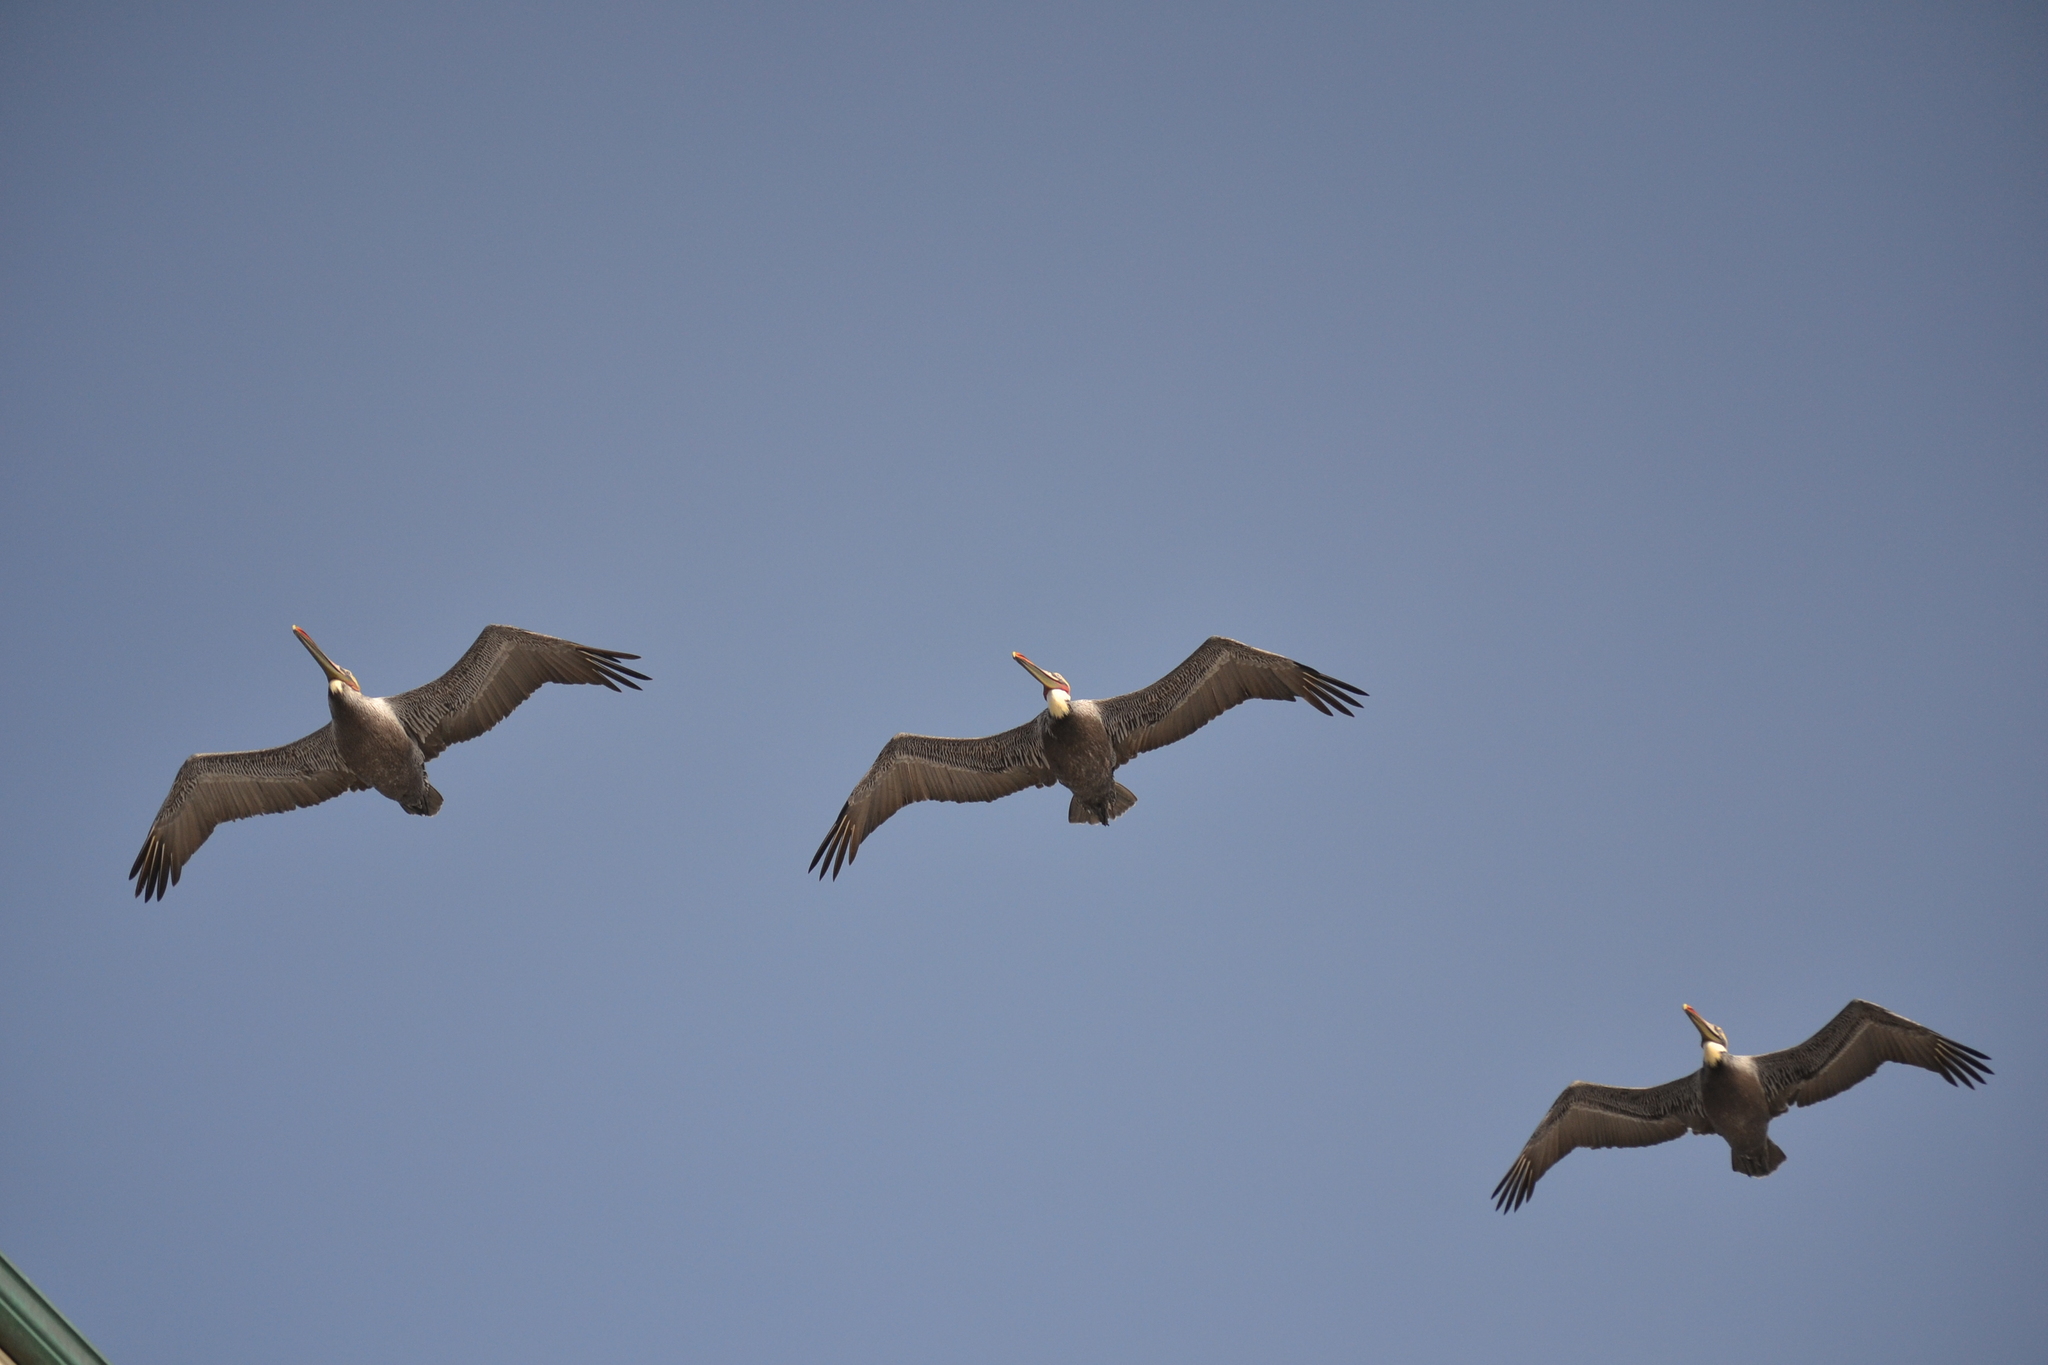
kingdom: Animalia
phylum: Chordata
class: Aves
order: Pelecaniformes
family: Pelecanidae
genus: Pelecanus
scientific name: Pelecanus occidentalis
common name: Brown pelican
